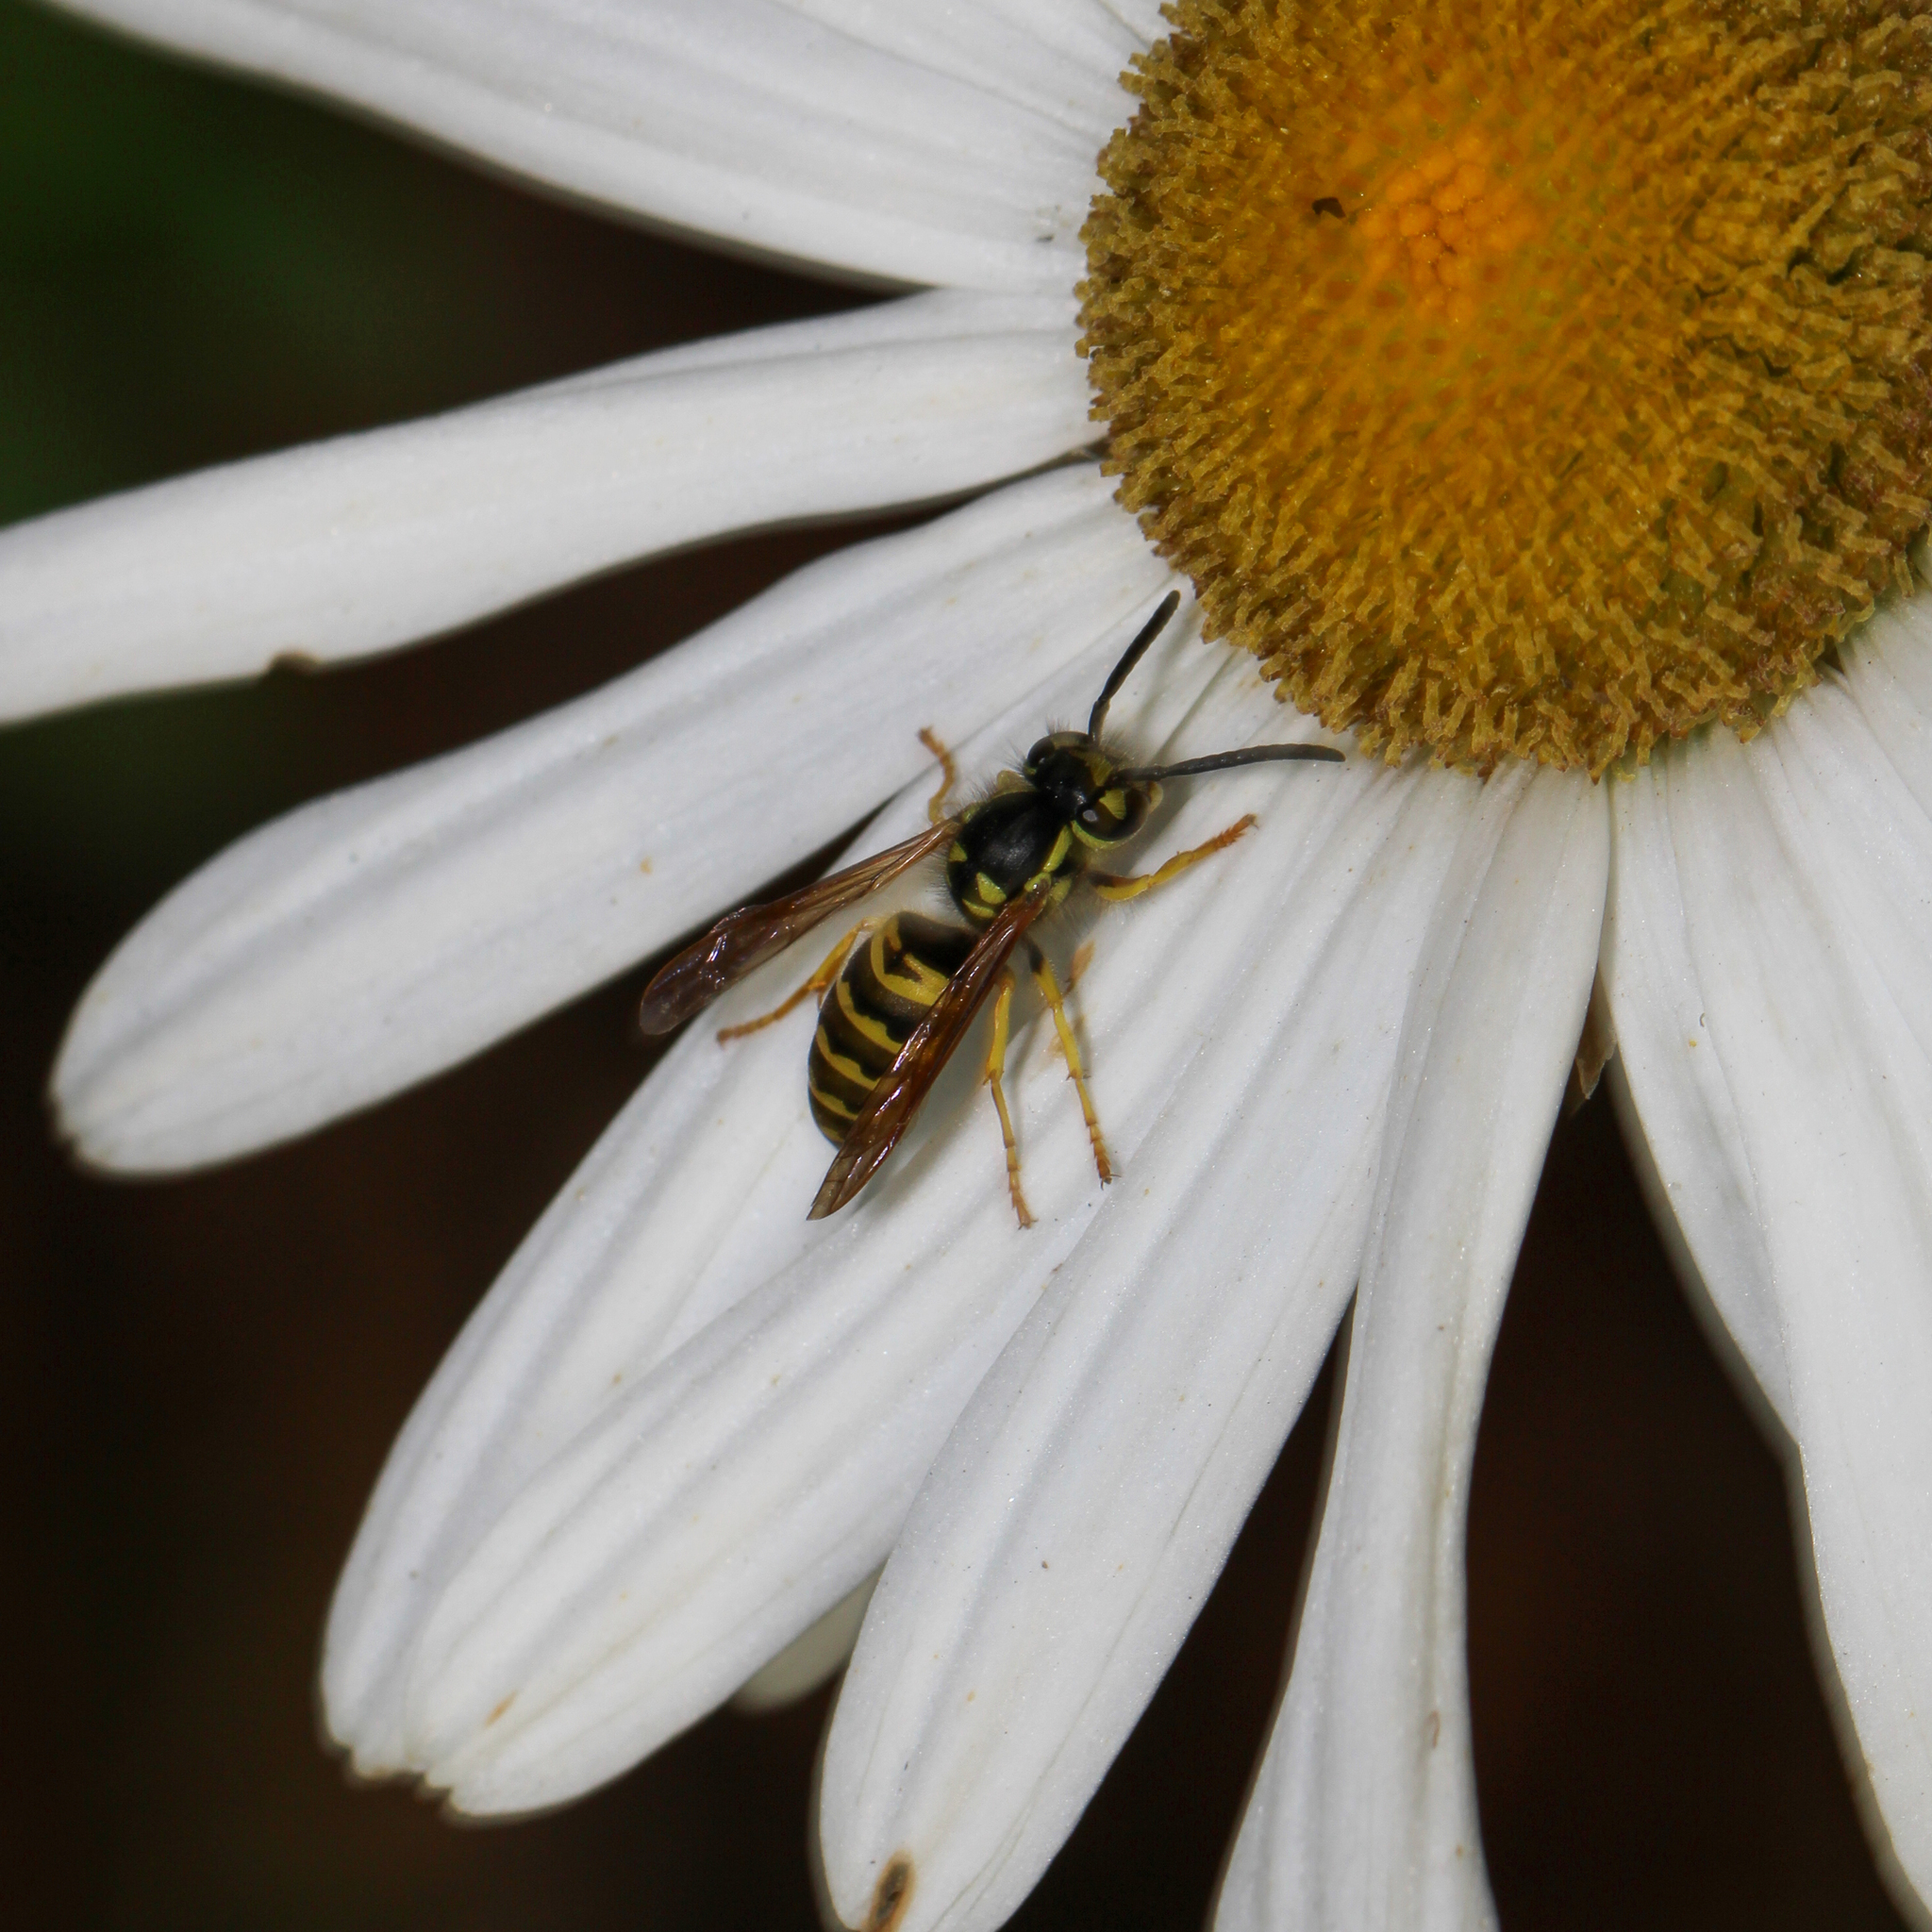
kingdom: Animalia
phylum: Arthropoda
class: Insecta
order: Hymenoptera
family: Vespidae
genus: Vespula
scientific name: Vespula maculifrons
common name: Eastern yellowjacket
